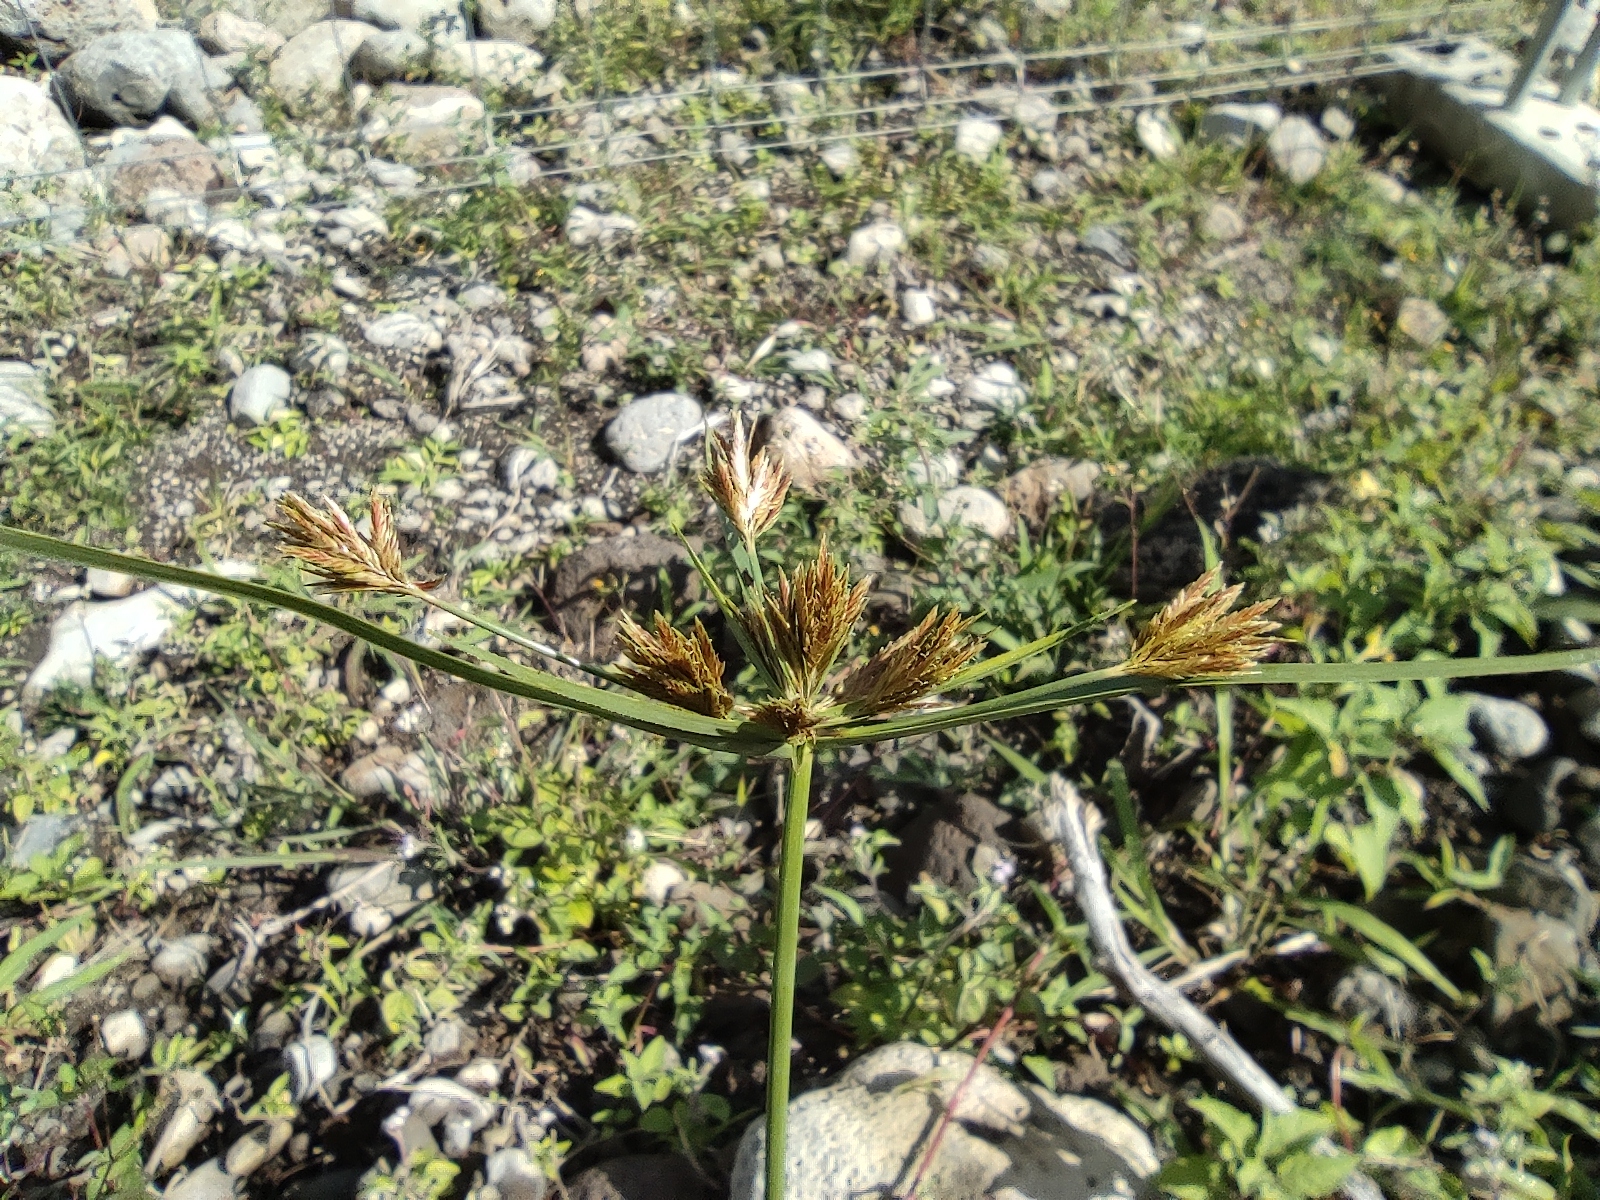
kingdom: Plantae
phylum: Tracheophyta
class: Liliopsida
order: Poales
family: Cyperaceae
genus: Cyperus
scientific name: Cyperus polystachyos
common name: Bunchy flat sedge
